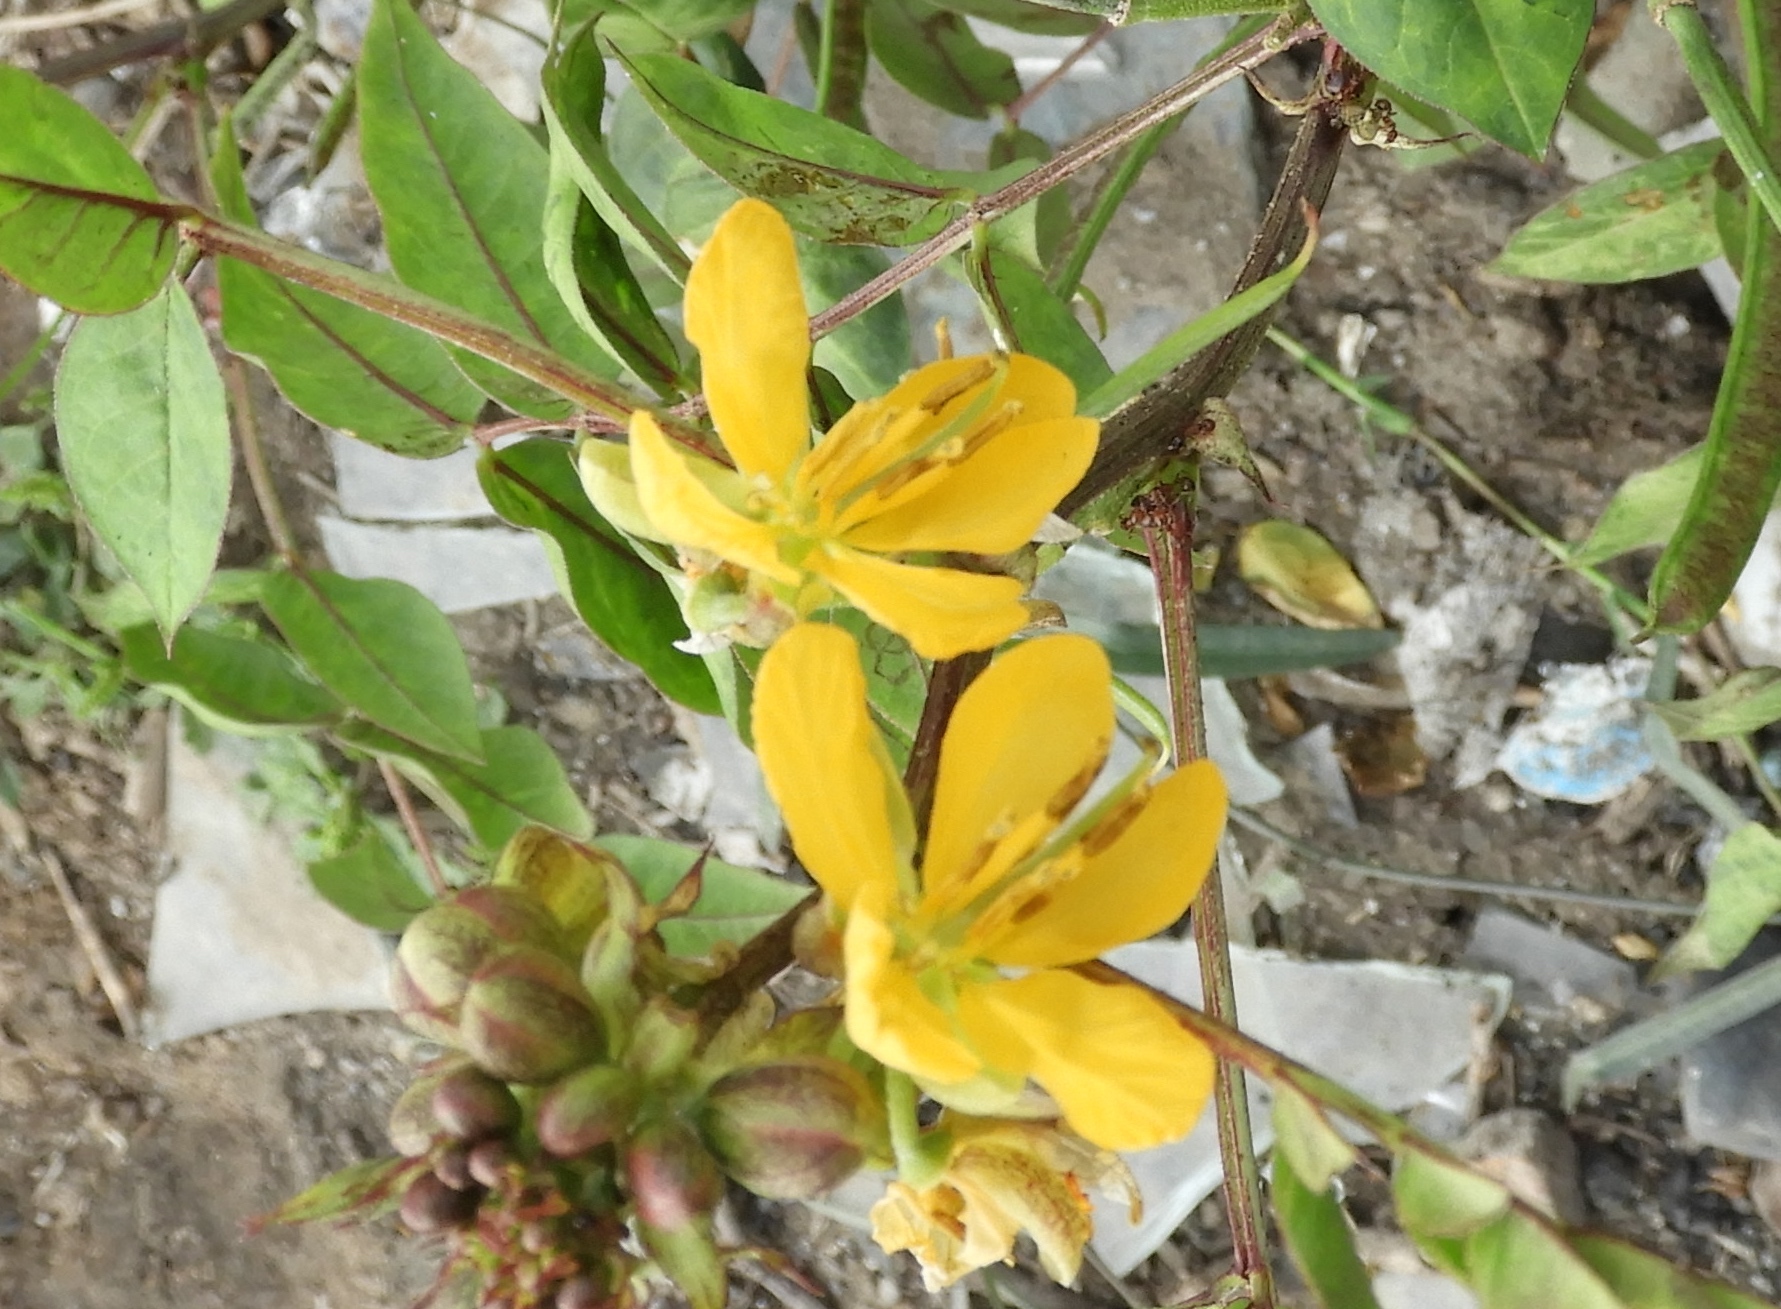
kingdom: Plantae
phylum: Tracheophyta
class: Magnoliopsida
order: Fabales
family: Fabaceae
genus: Senna
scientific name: Senna occidentalis
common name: Septicweed
